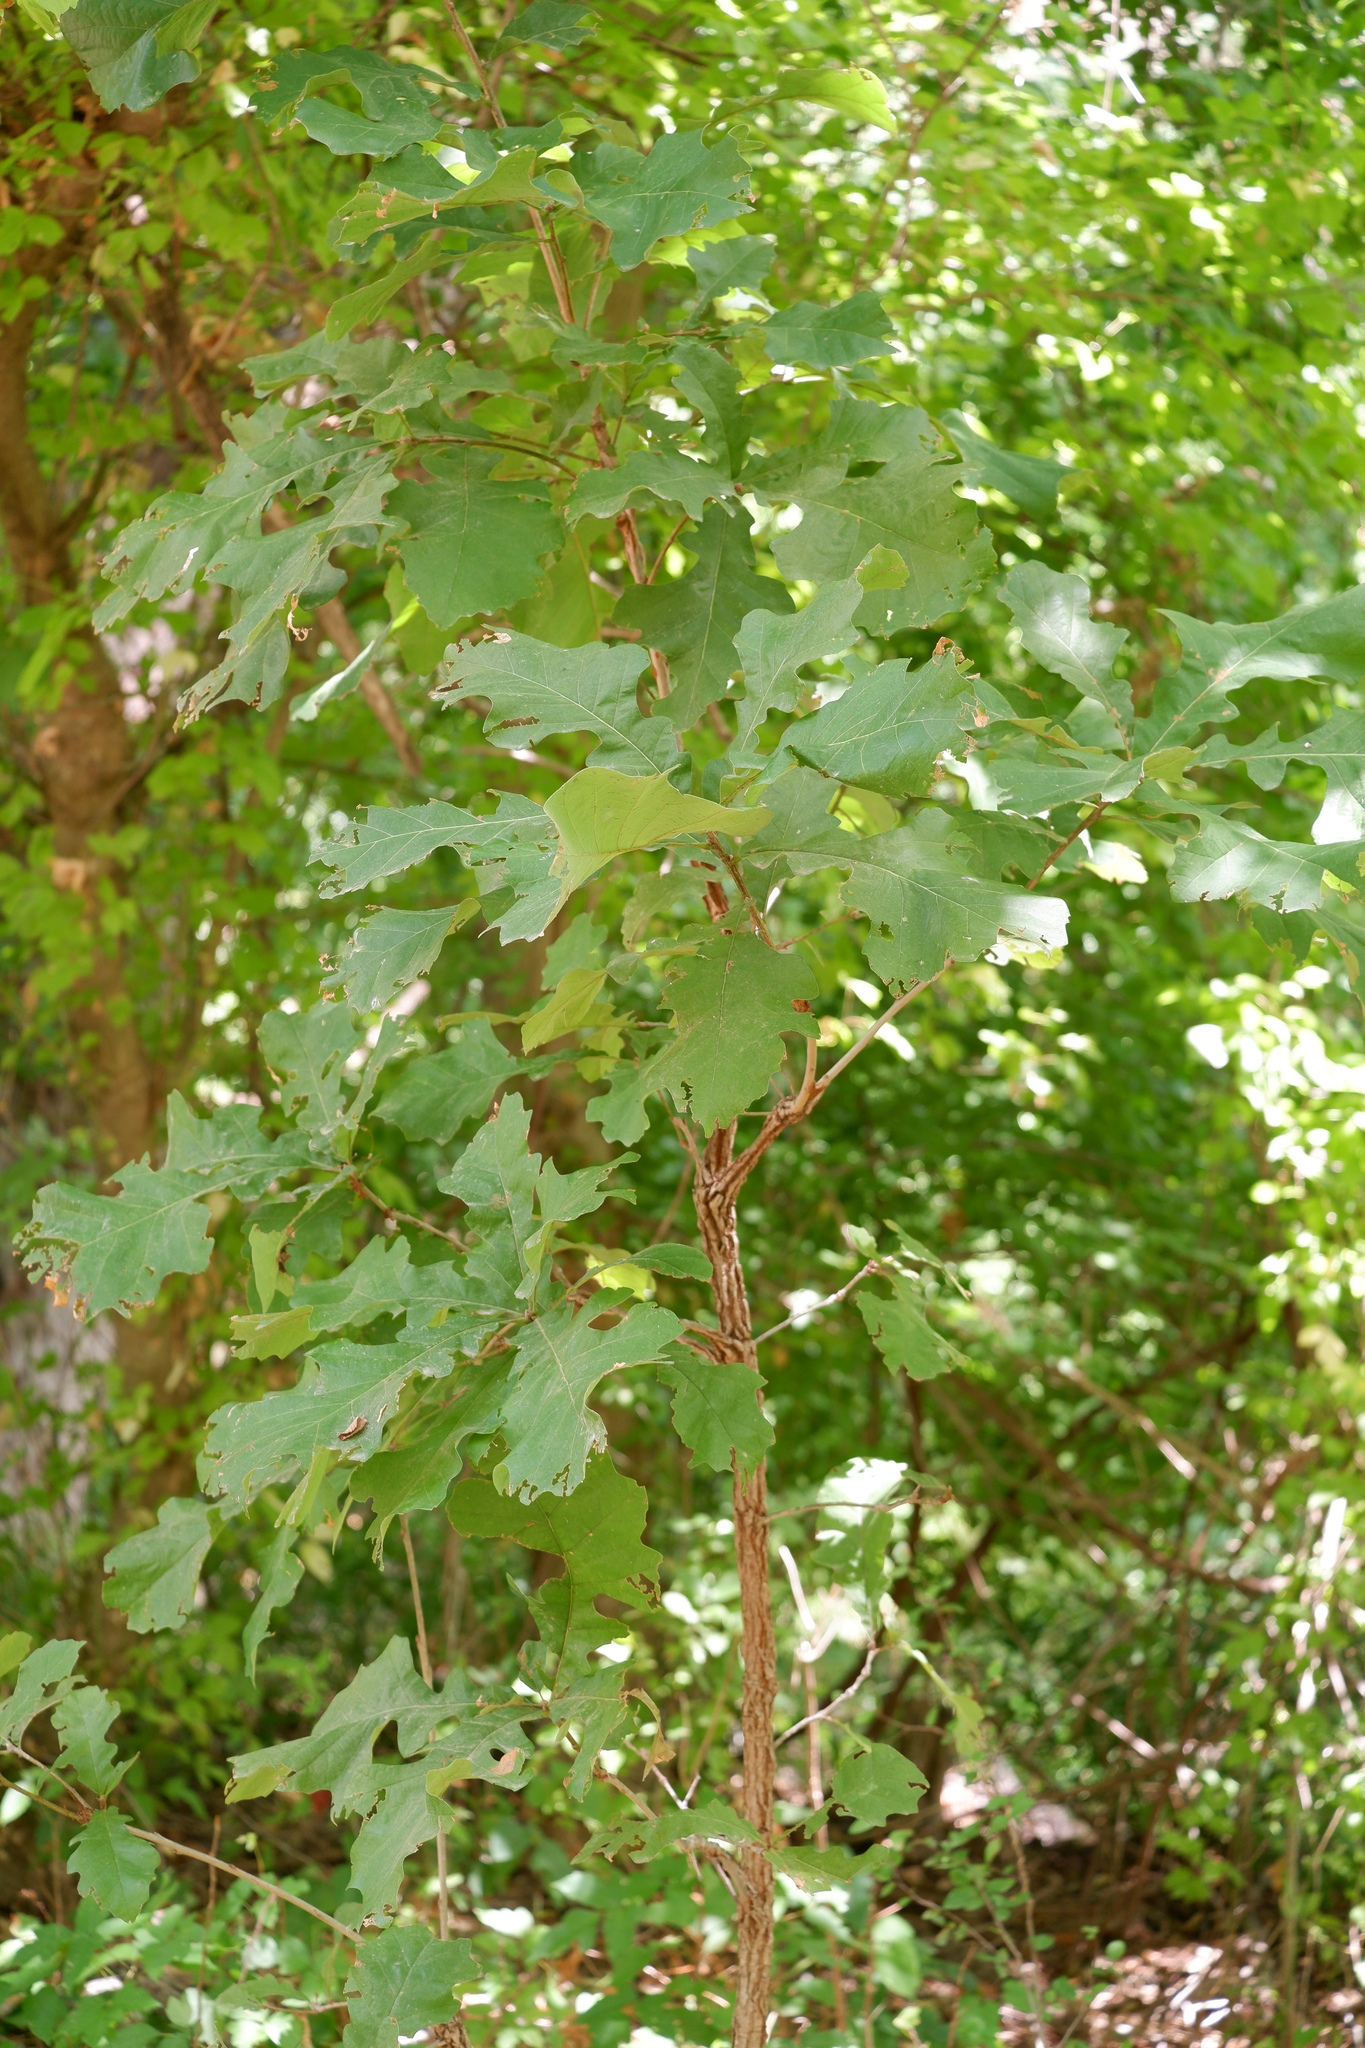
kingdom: Plantae
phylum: Tracheophyta
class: Magnoliopsida
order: Fagales
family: Fagaceae
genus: Quercus
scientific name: Quercus macrocarpa
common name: Bur oak
